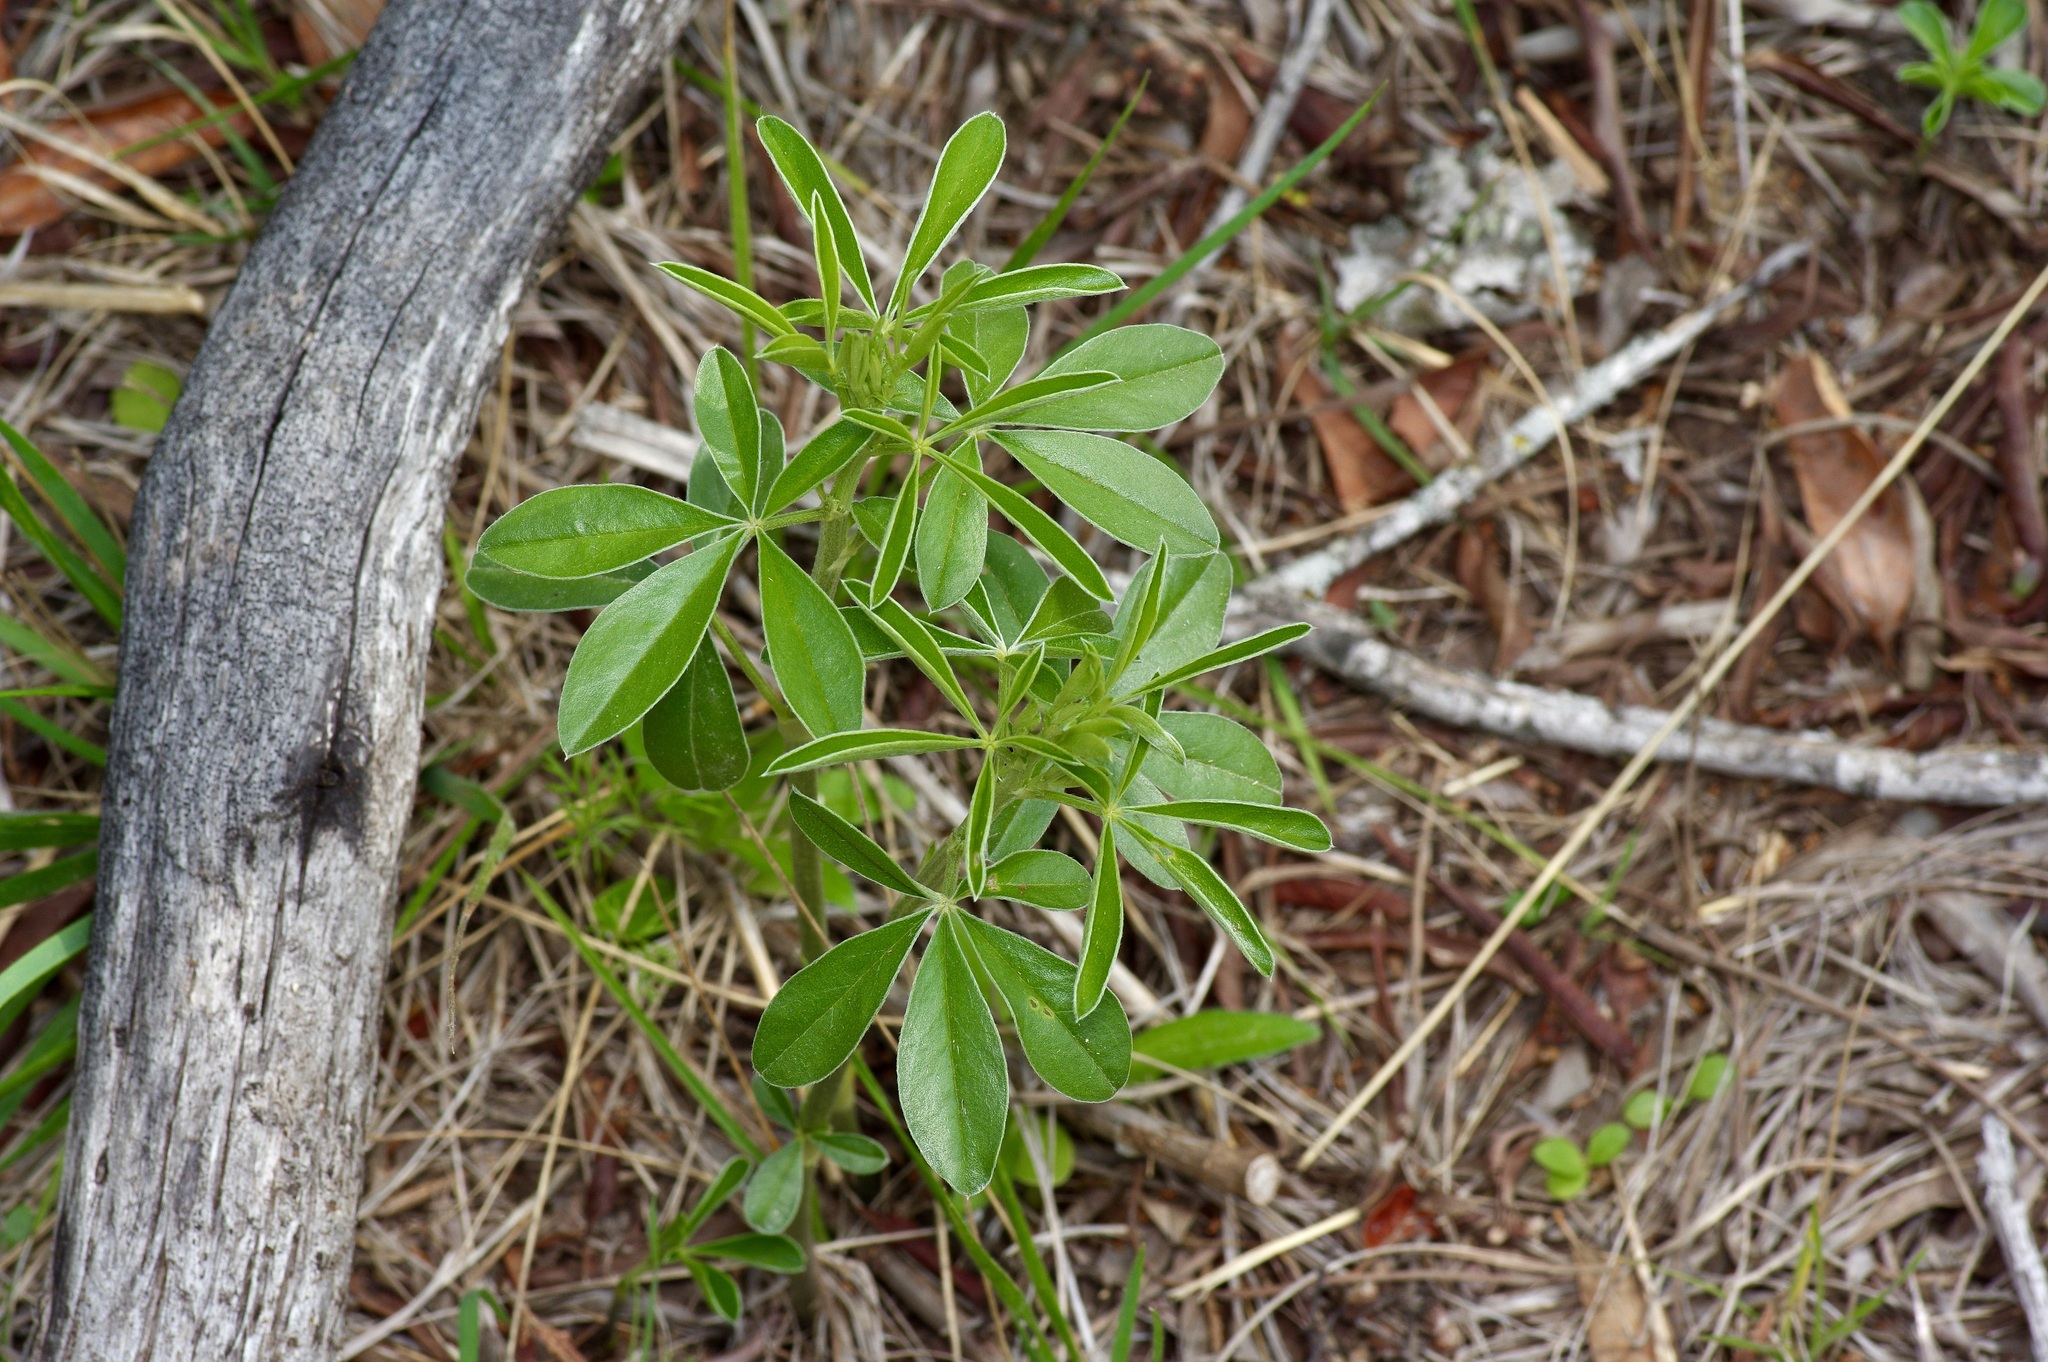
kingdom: Plantae
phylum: Tracheophyta
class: Magnoliopsida
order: Fabales
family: Fabaceae
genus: Pediomelum
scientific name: Pediomelum tenuiflorum
